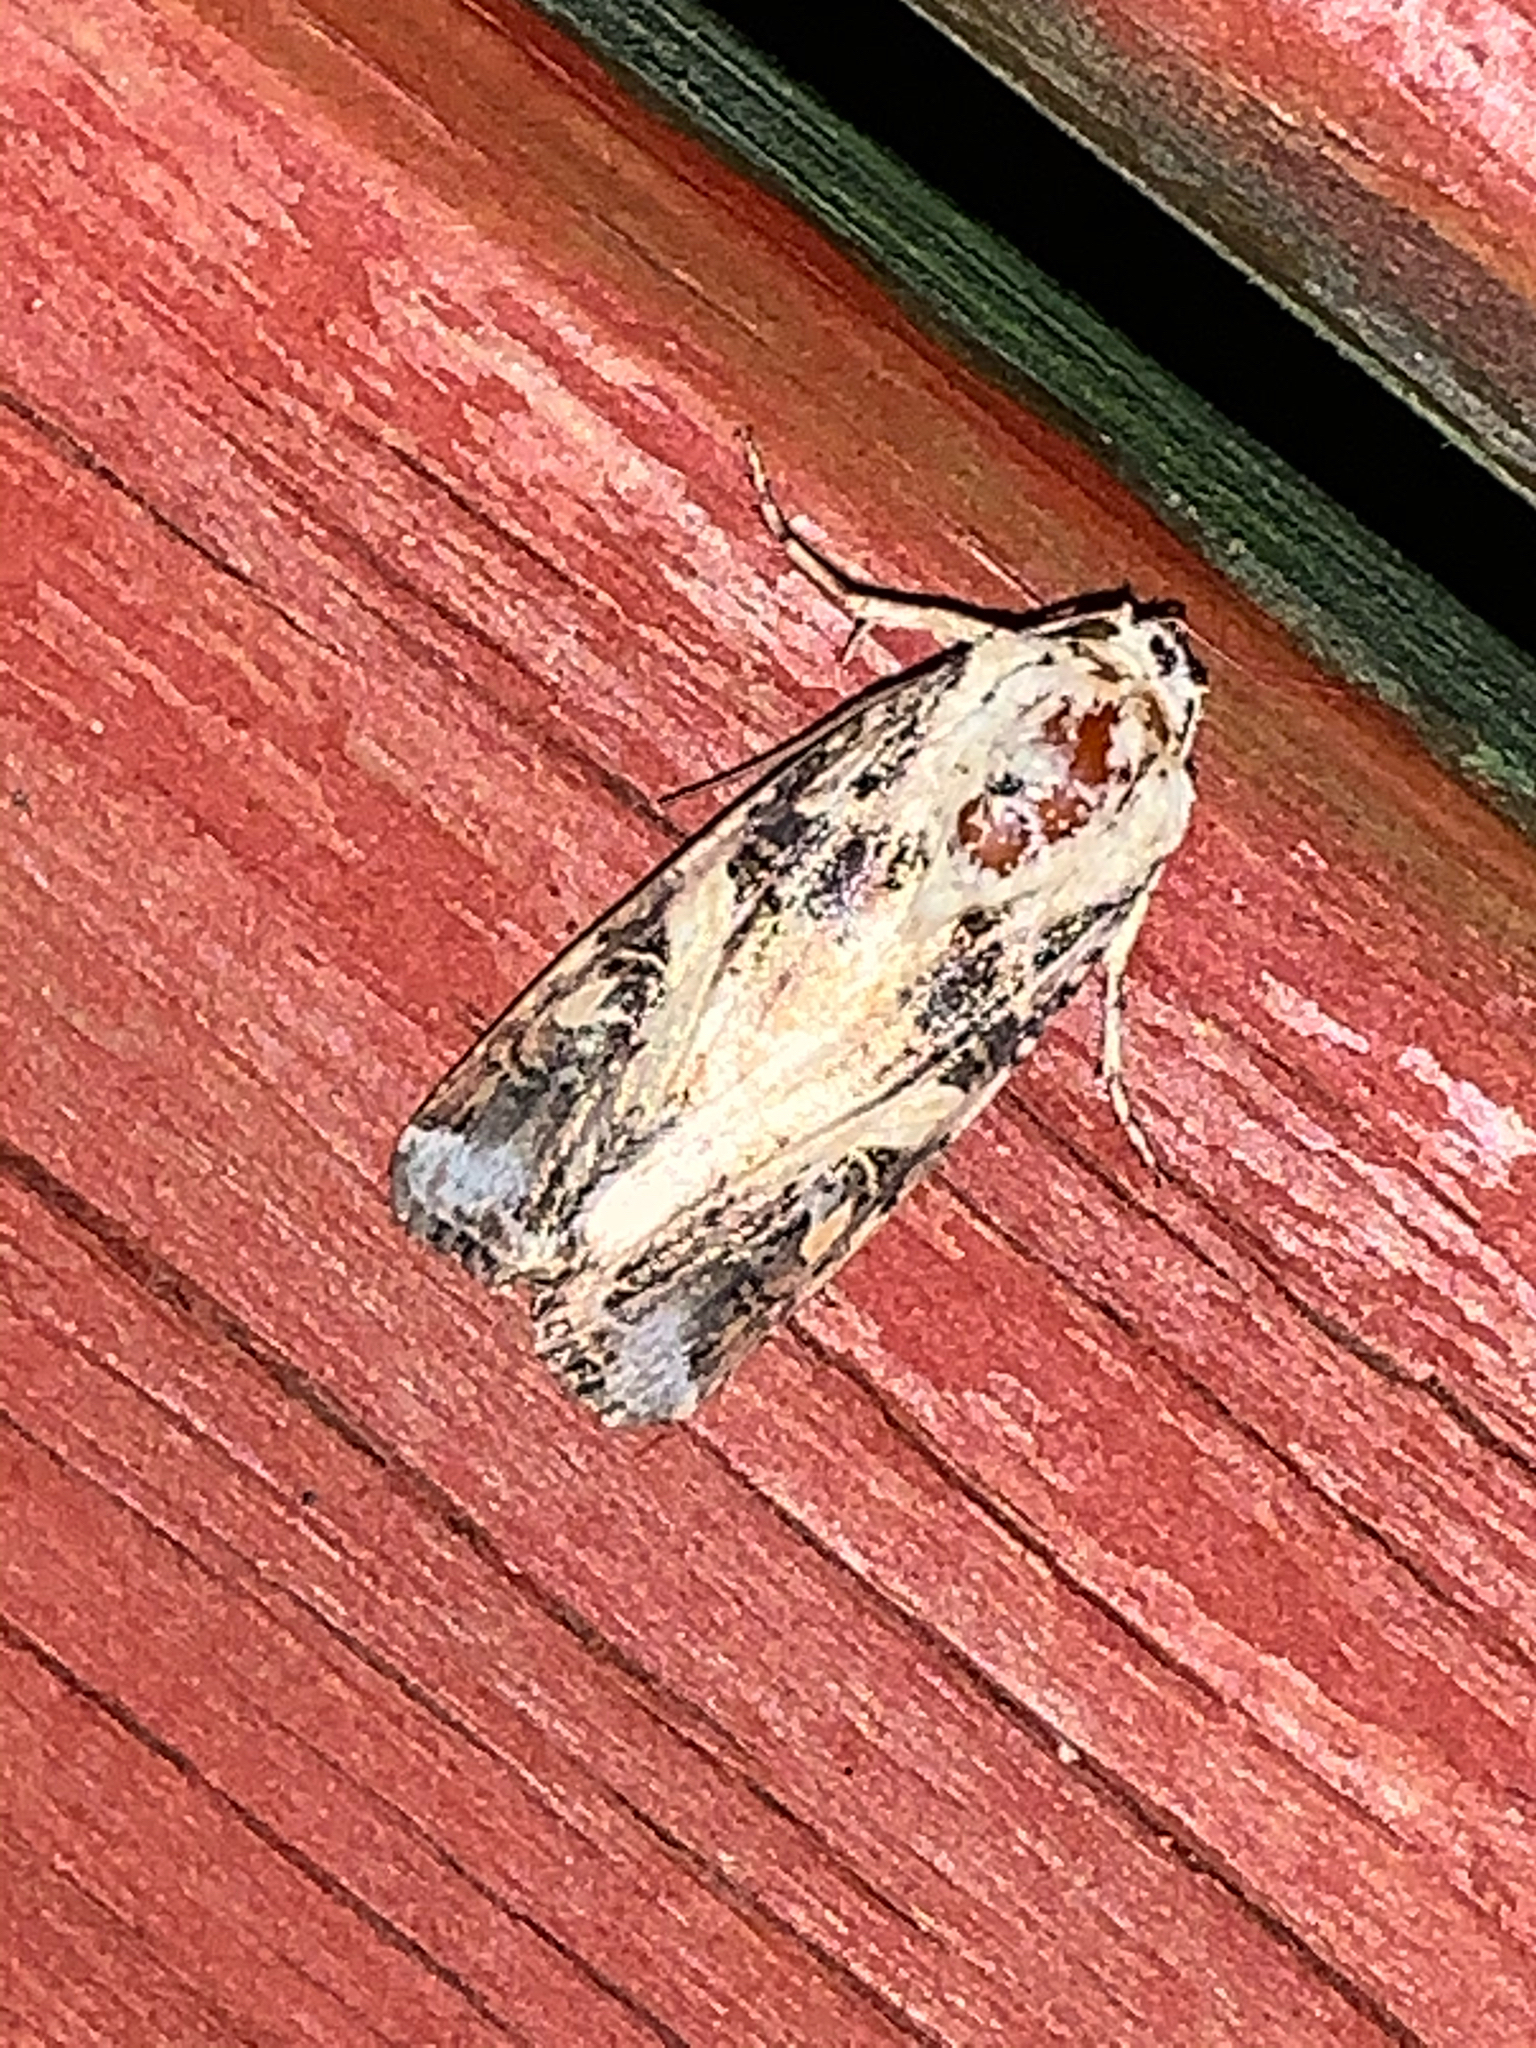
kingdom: Animalia
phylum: Arthropoda
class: Insecta
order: Lepidoptera
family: Noctuidae
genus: Spodoptera
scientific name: Spodoptera ornithogalli
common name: Yellow-striped armyworm
